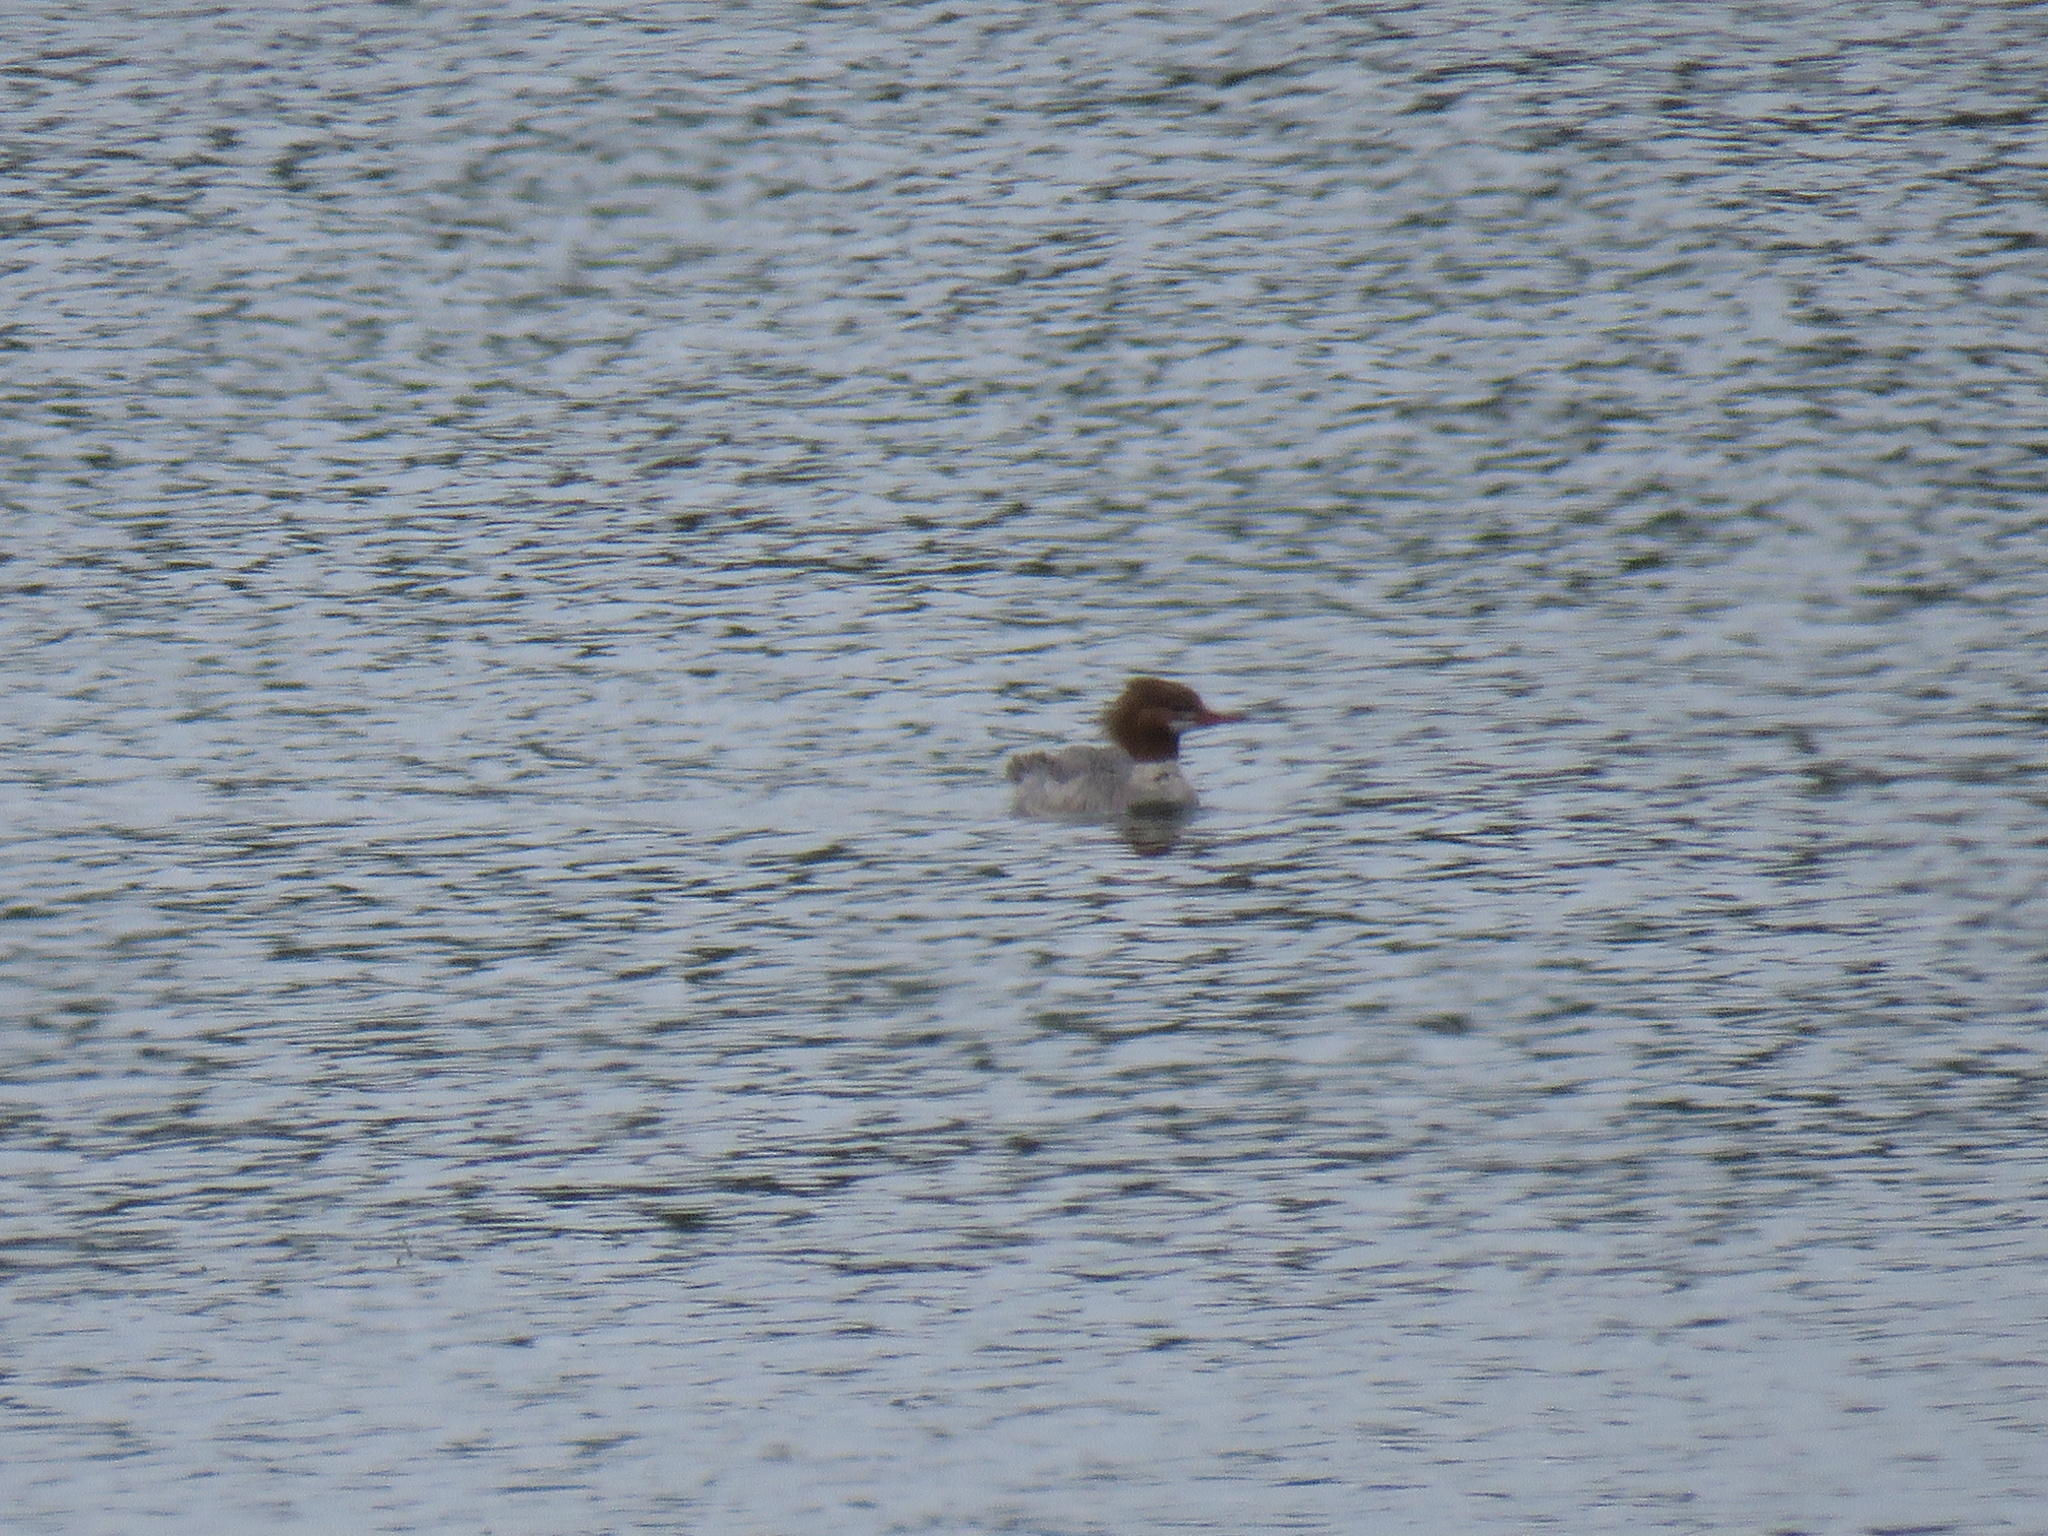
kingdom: Animalia
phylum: Chordata
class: Aves
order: Anseriformes
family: Anatidae
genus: Mergus
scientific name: Mergus merganser
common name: Common merganser
